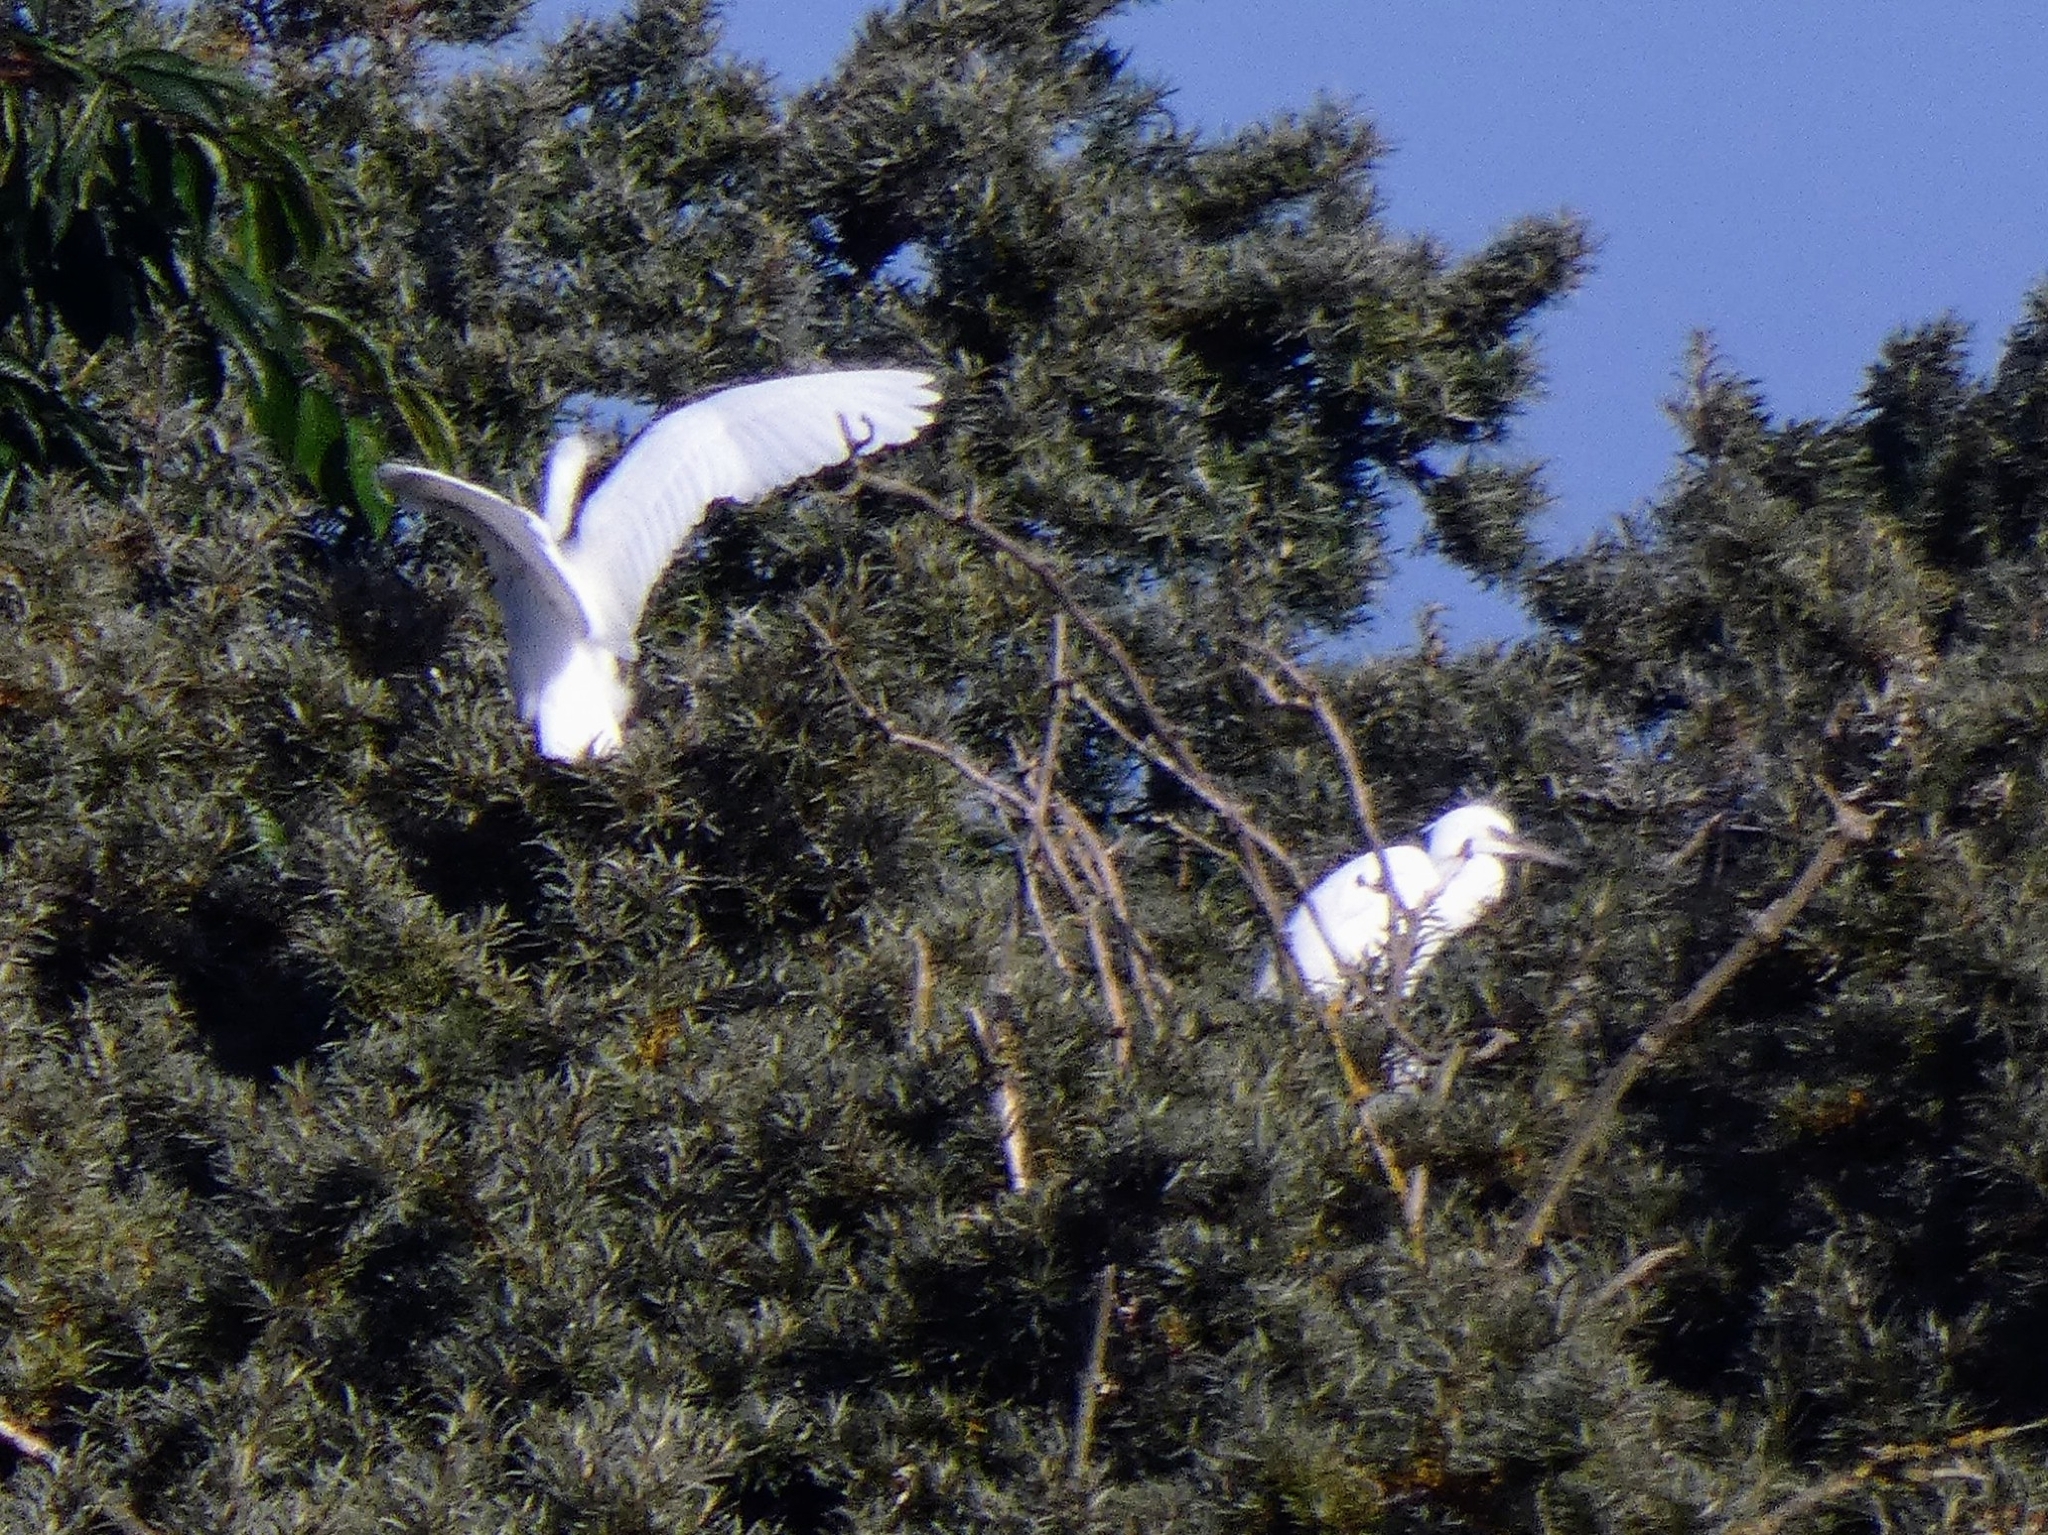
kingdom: Animalia
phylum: Chordata
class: Aves
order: Pelecaniformes
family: Ardeidae
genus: Egretta
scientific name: Egretta garzetta
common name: Little egret
